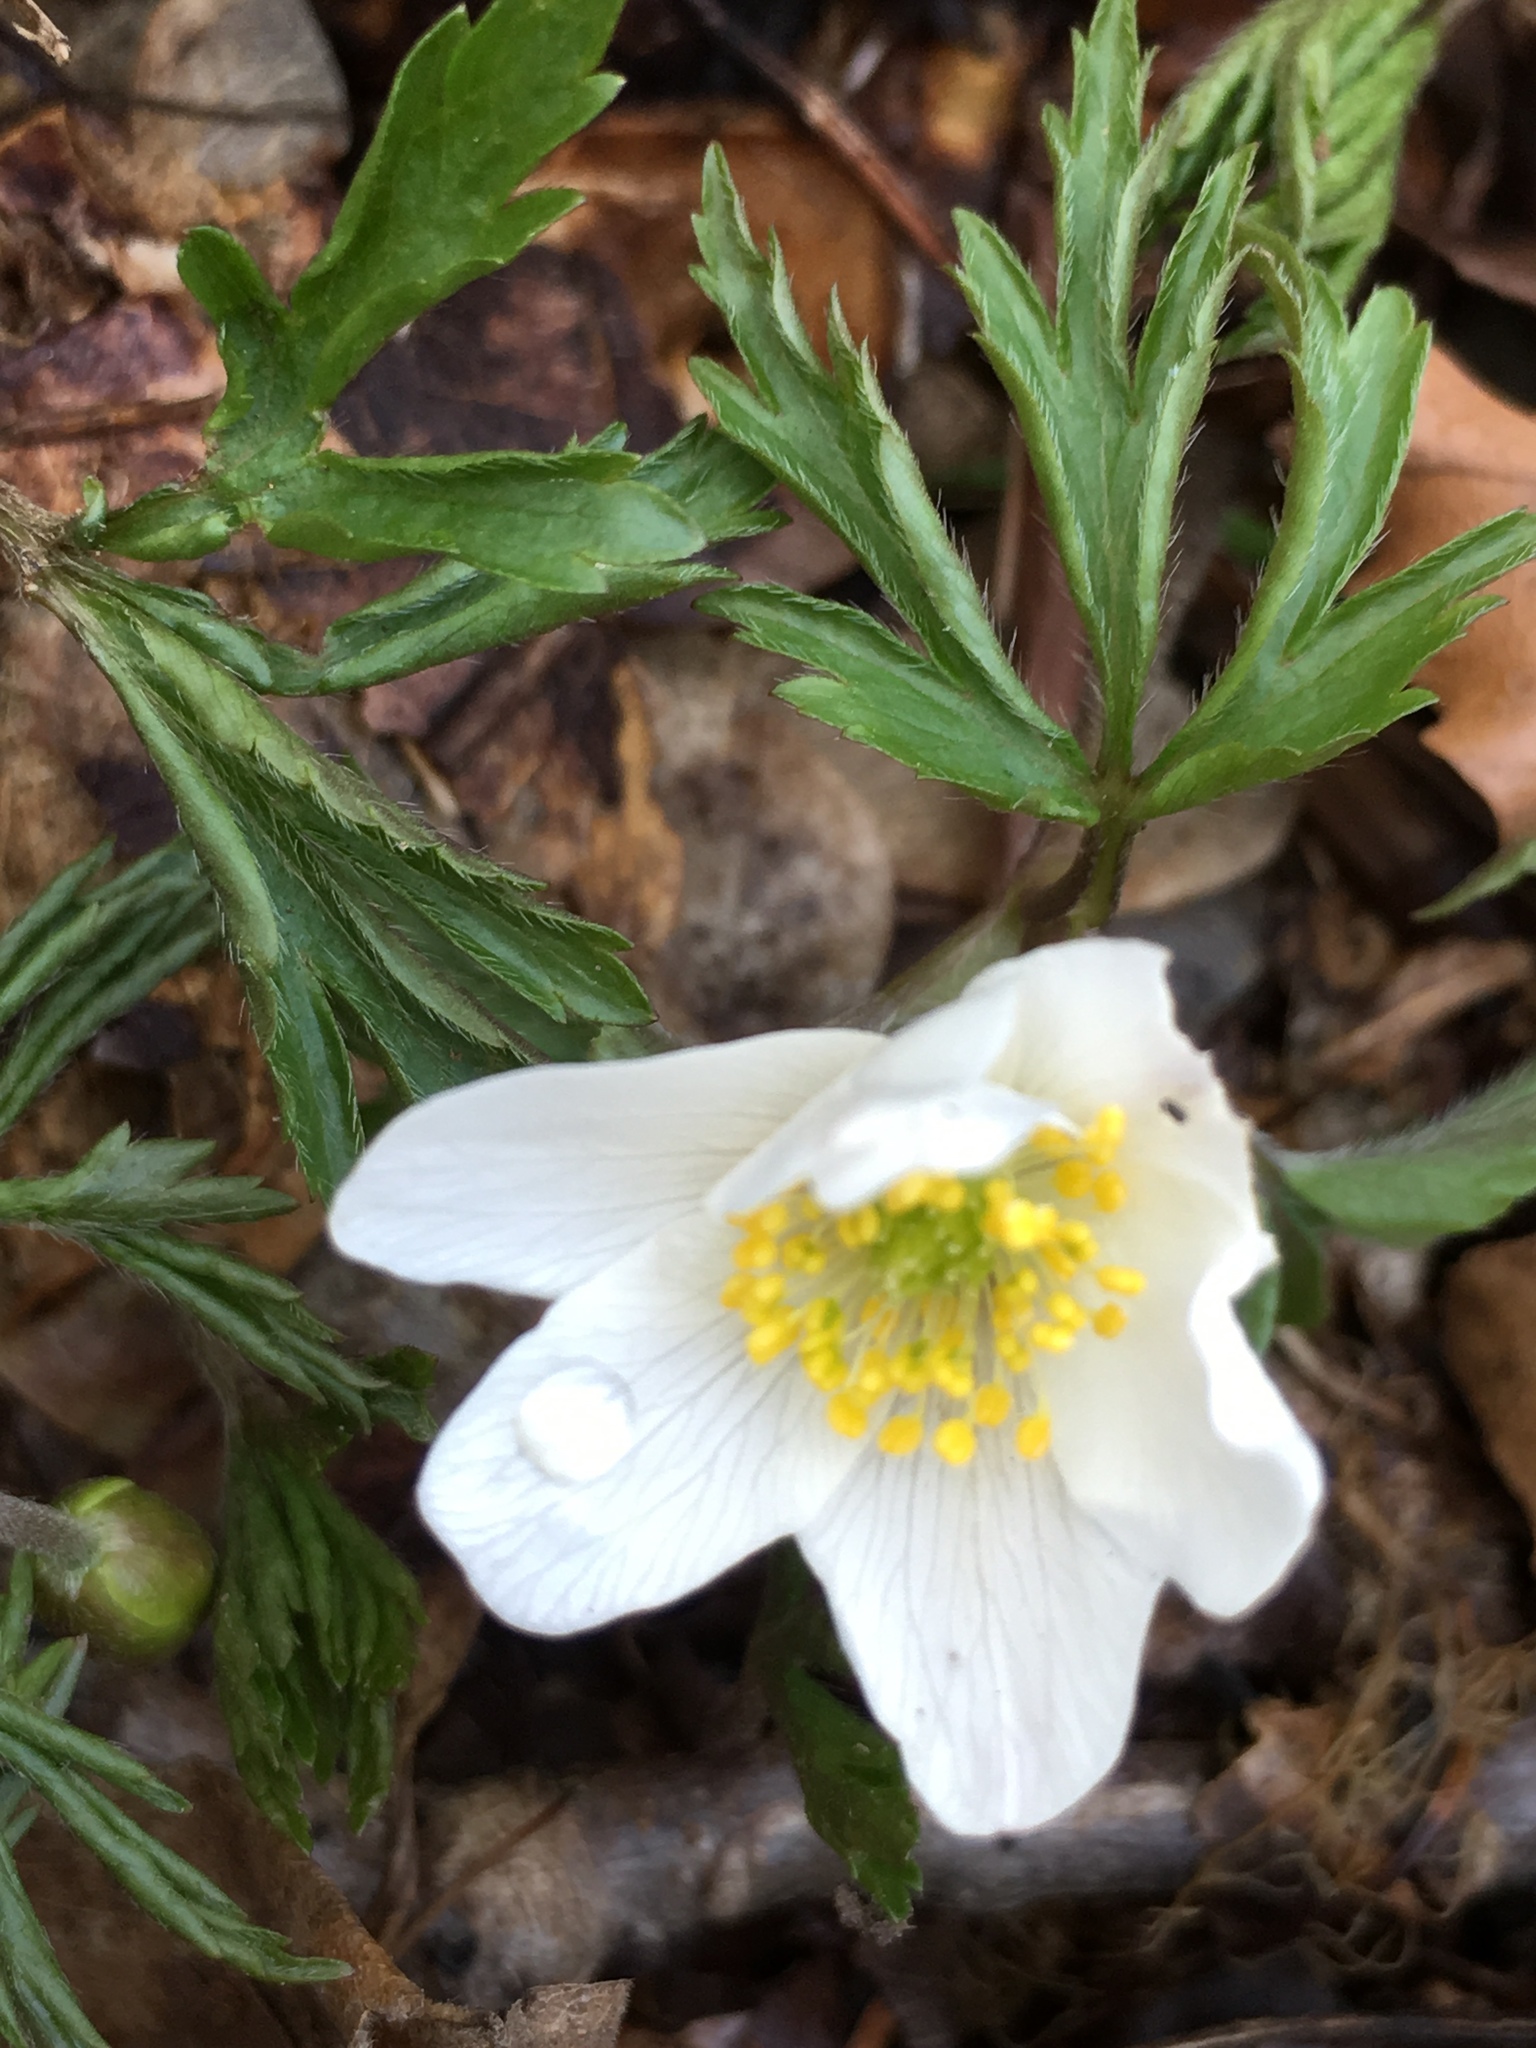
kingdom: Plantae
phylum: Tracheophyta
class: Magnoliopsida
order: Ranunculales
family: Ranunculaceae
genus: Anemone
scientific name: Anemone nemorosa
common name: Wood anemone
